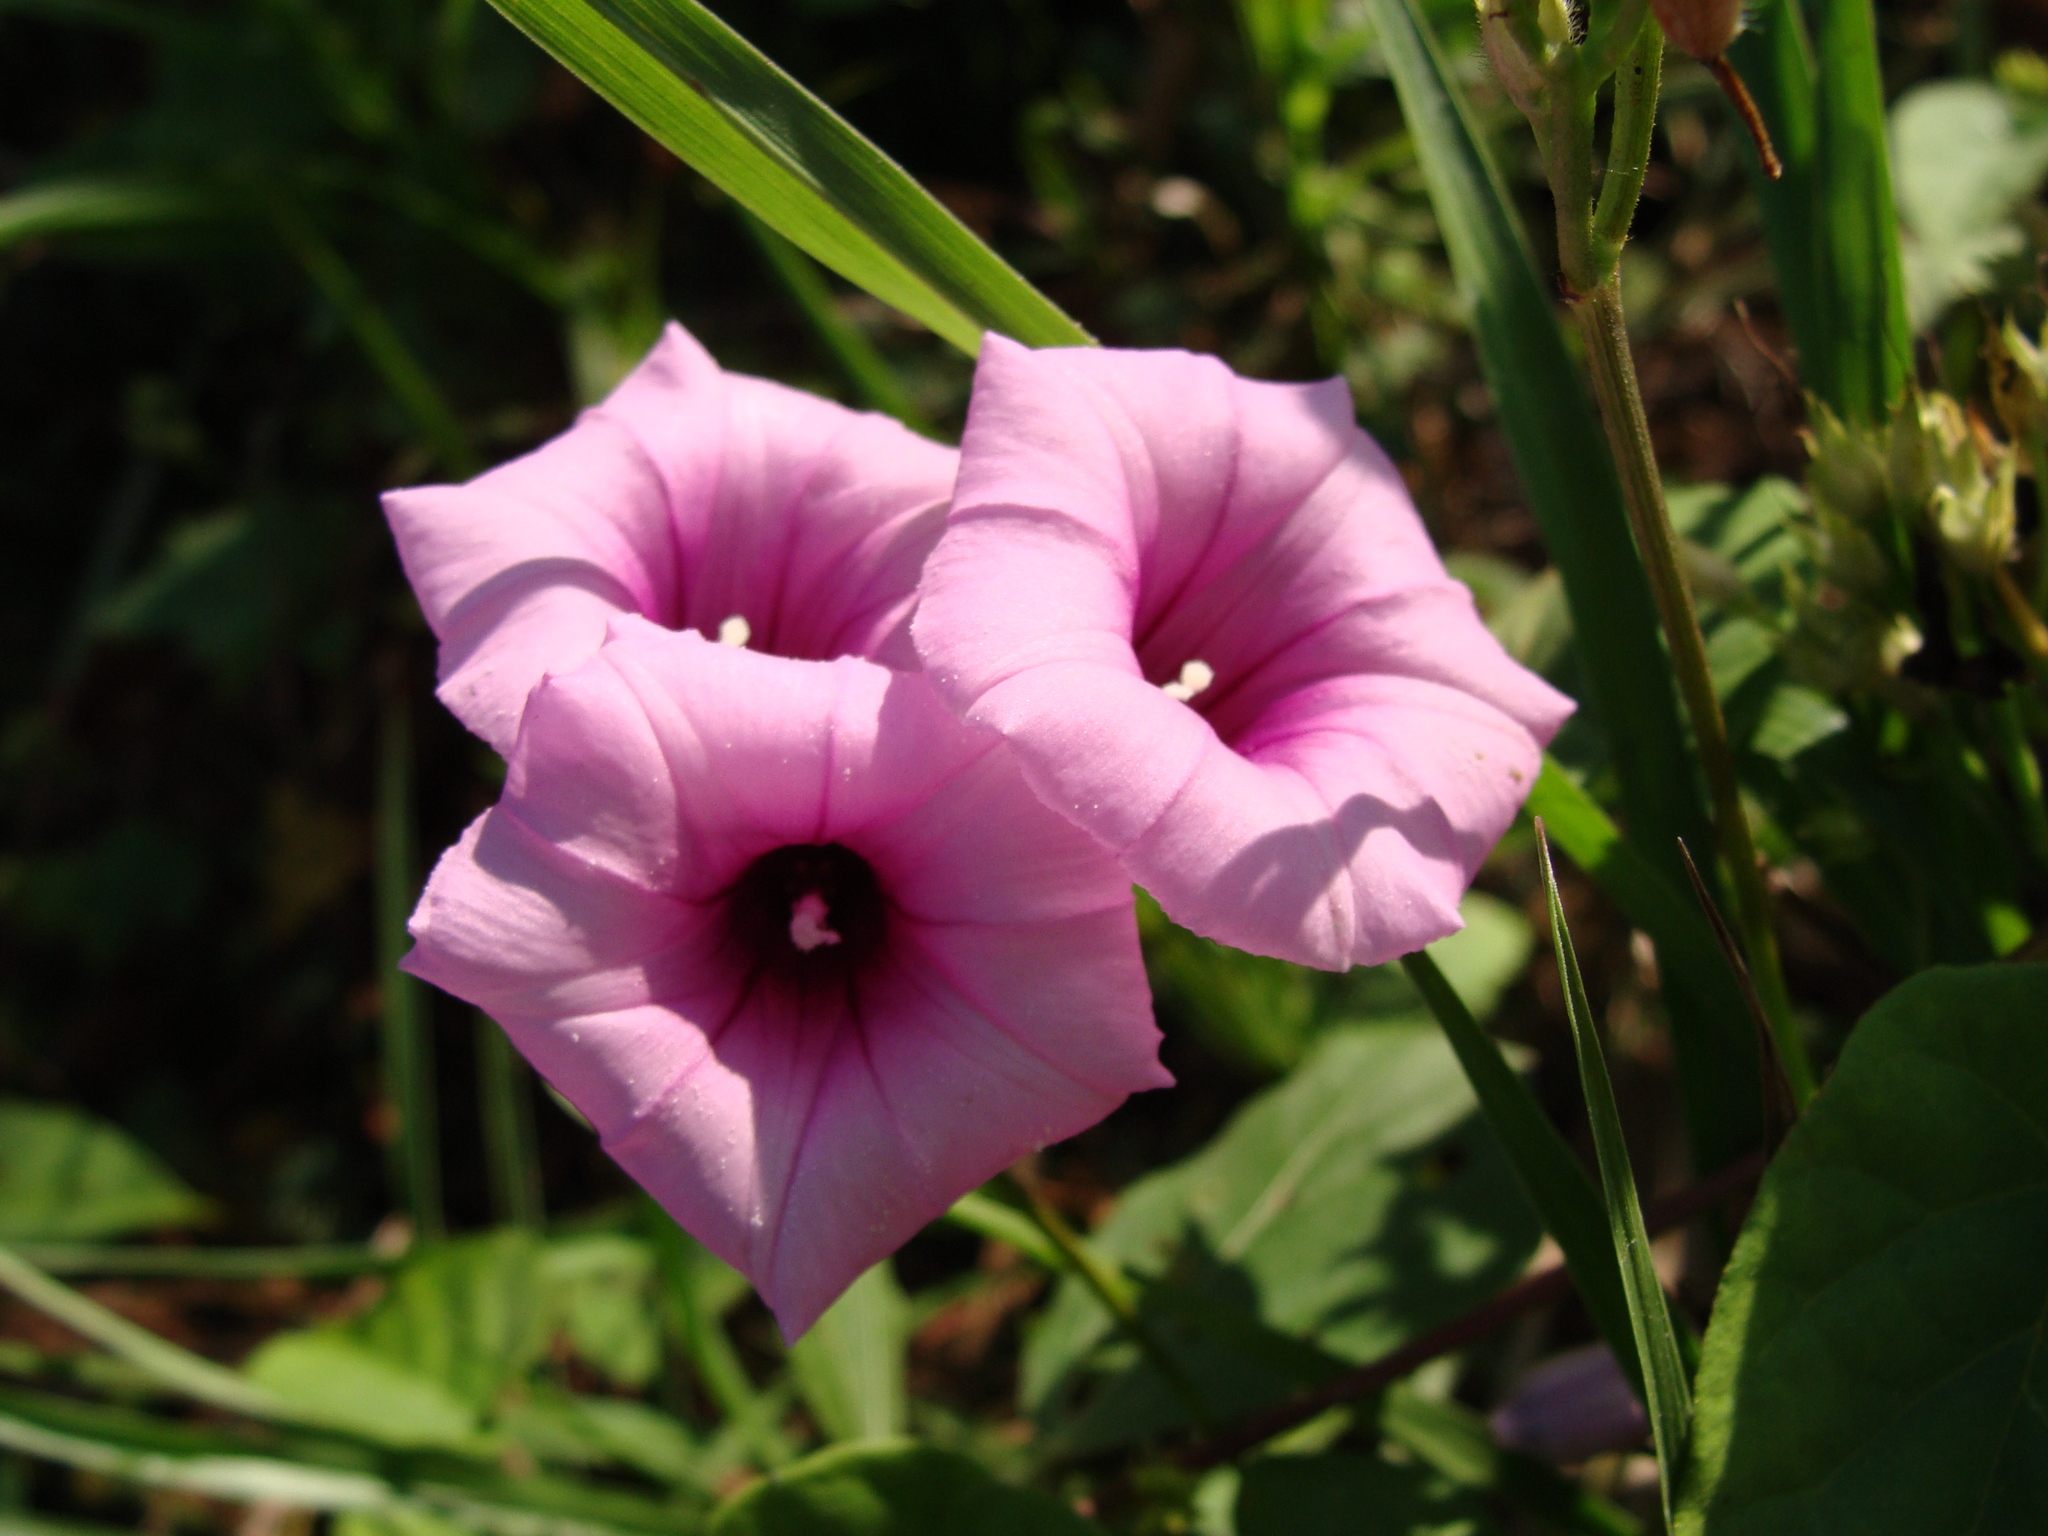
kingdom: Plantae
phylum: Tracheophyta
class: Magnoliopsida
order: Solanales
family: Convolvulaceae
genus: Ipomoea
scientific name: Ipomoea trifida
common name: Cotton morningglory
